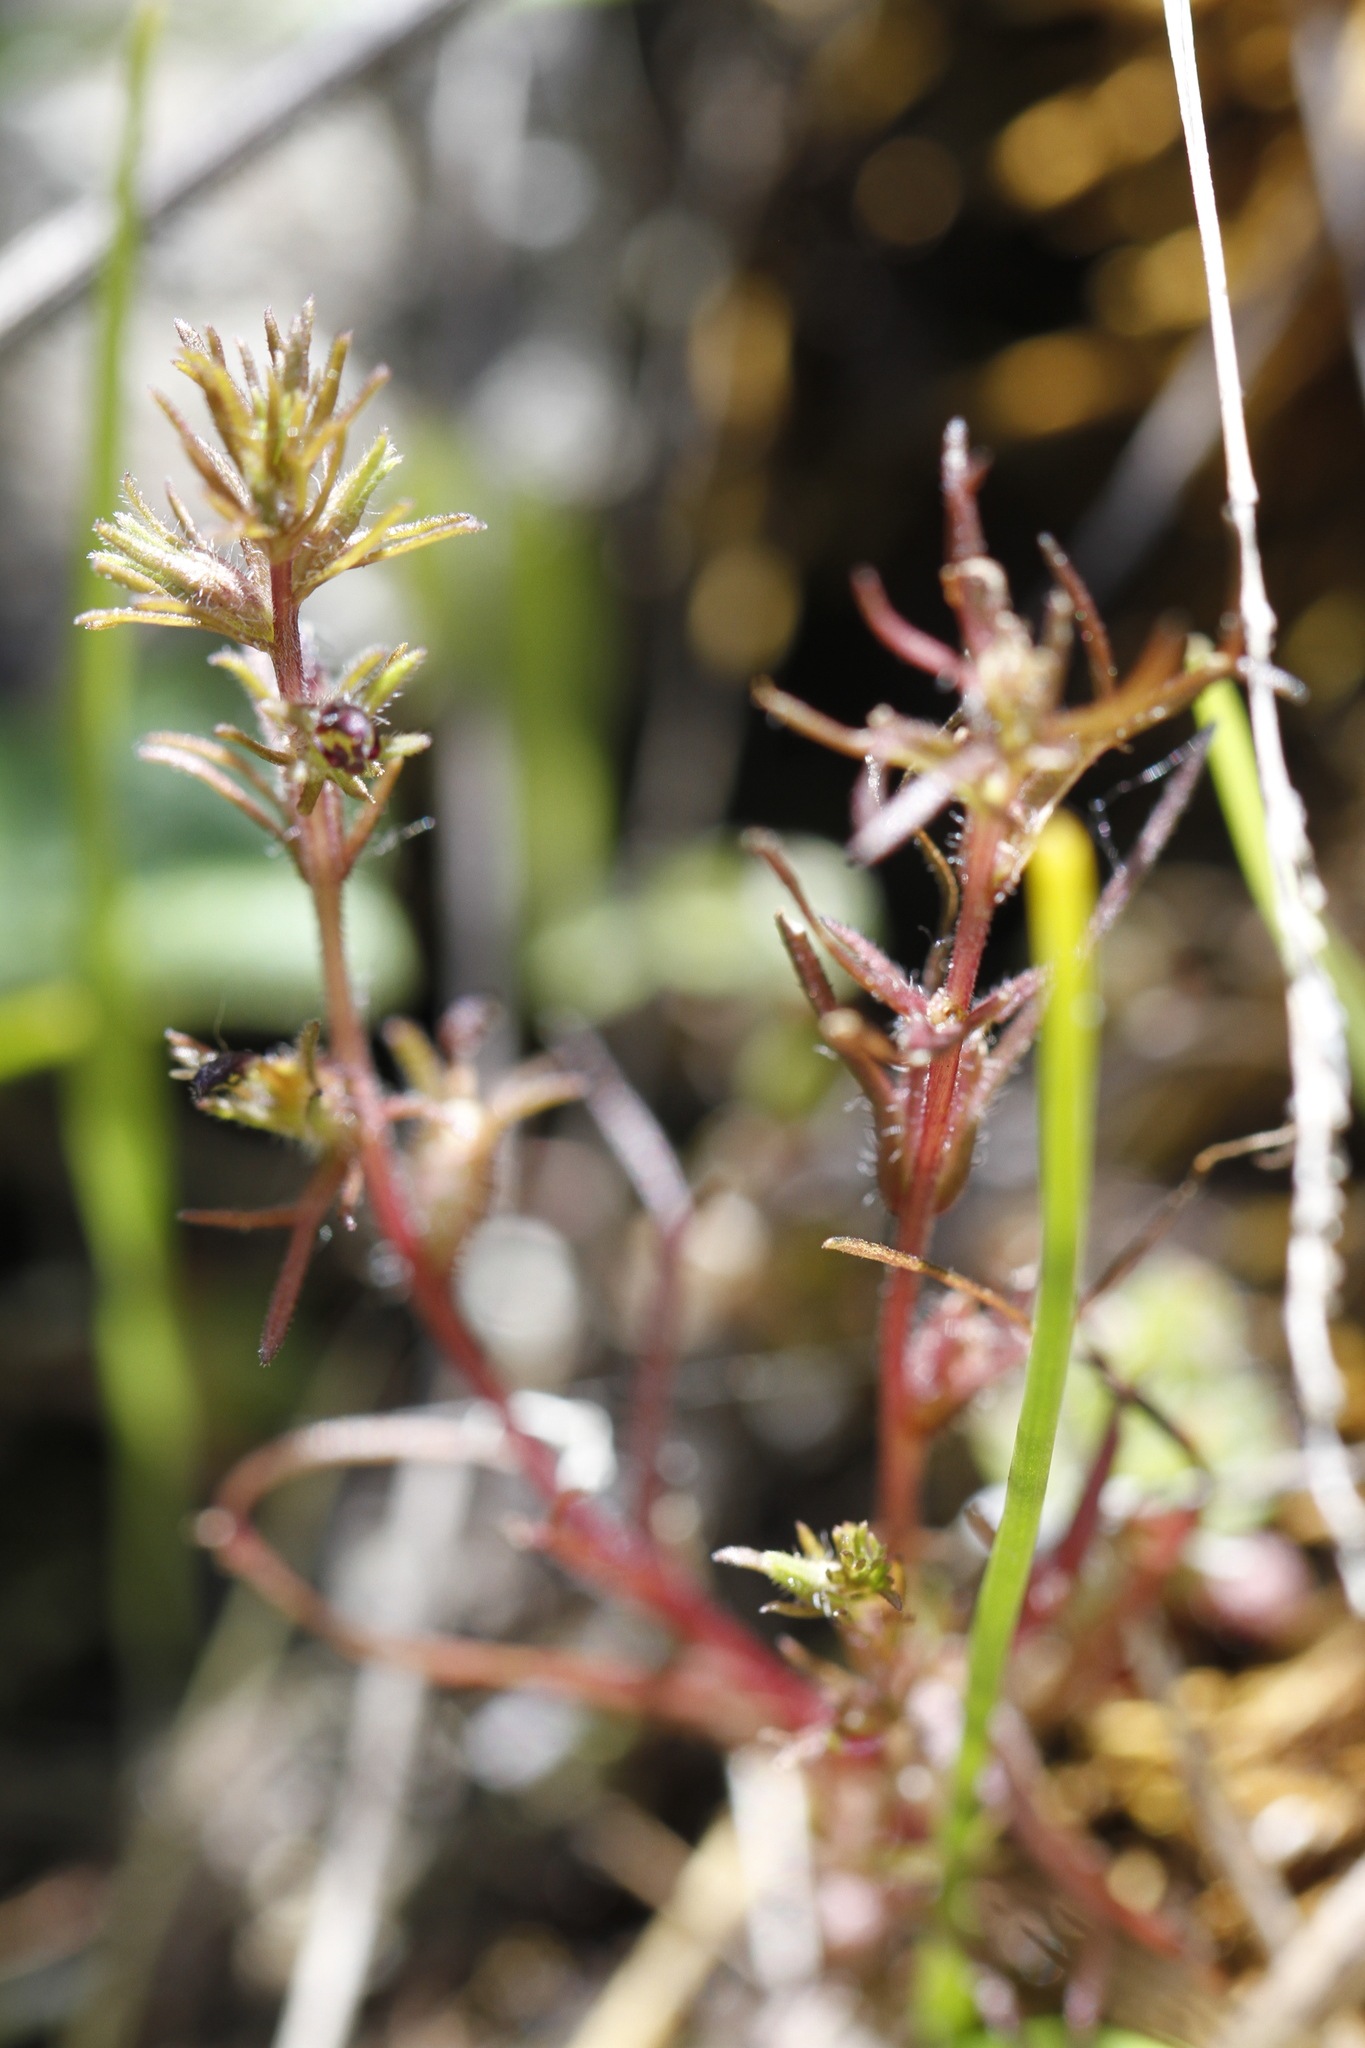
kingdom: Plantae
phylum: Tracheophyta
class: Magnoliopsida
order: Lamiales
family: Orobanchaceae
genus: Triphysaria
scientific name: Triphysaria pusilla
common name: Dwarf false owl-clover
